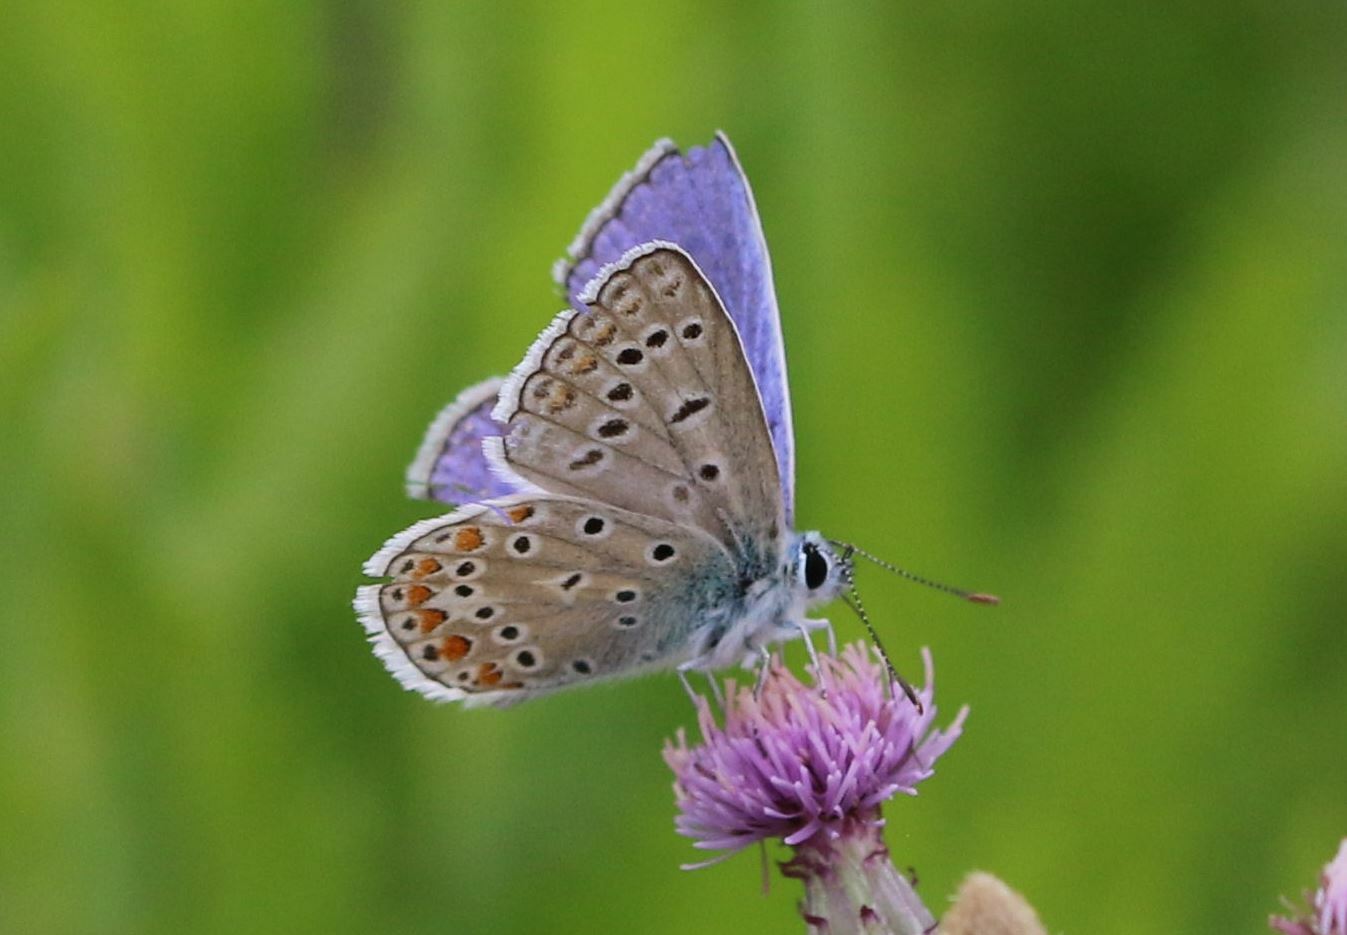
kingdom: Animalia
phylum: Arthropoda
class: Insecta
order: Lepidoptera
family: Lycaenidae
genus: Polyommatus
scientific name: Polyommatus icarus
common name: Common blue
